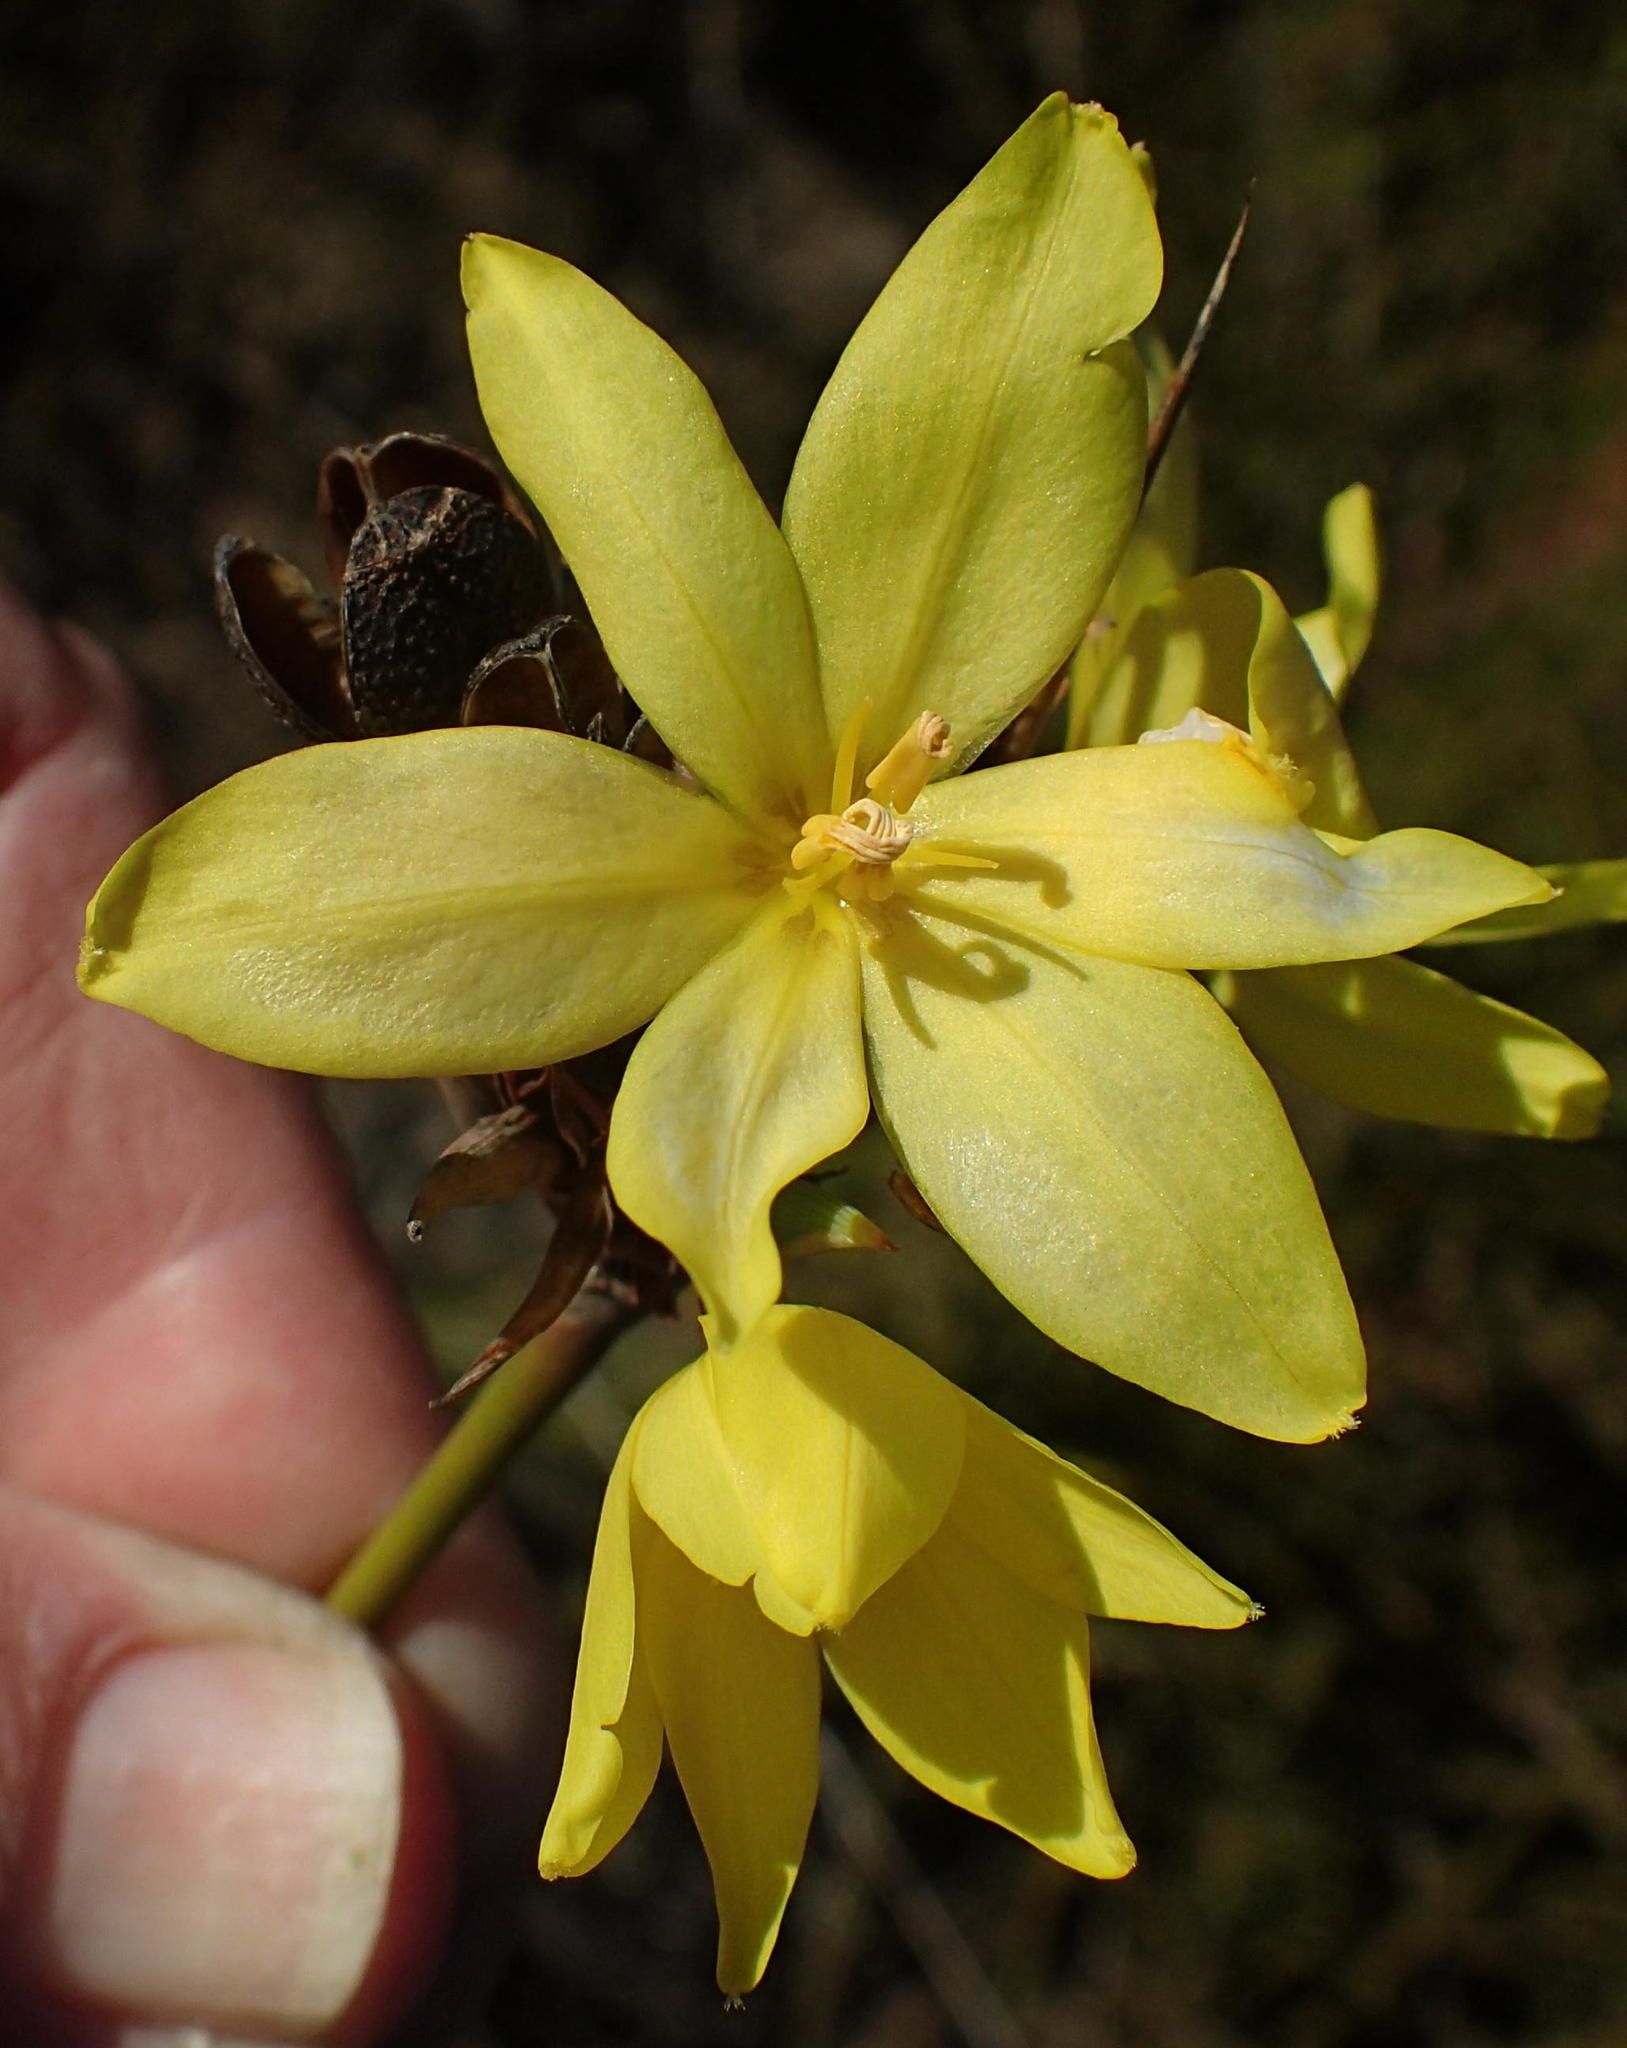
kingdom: Plantae
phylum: Tracheophyta
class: Liliopsida
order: Asparagales
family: Iridaceae
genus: Bobartia
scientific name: Bobartia robusta
